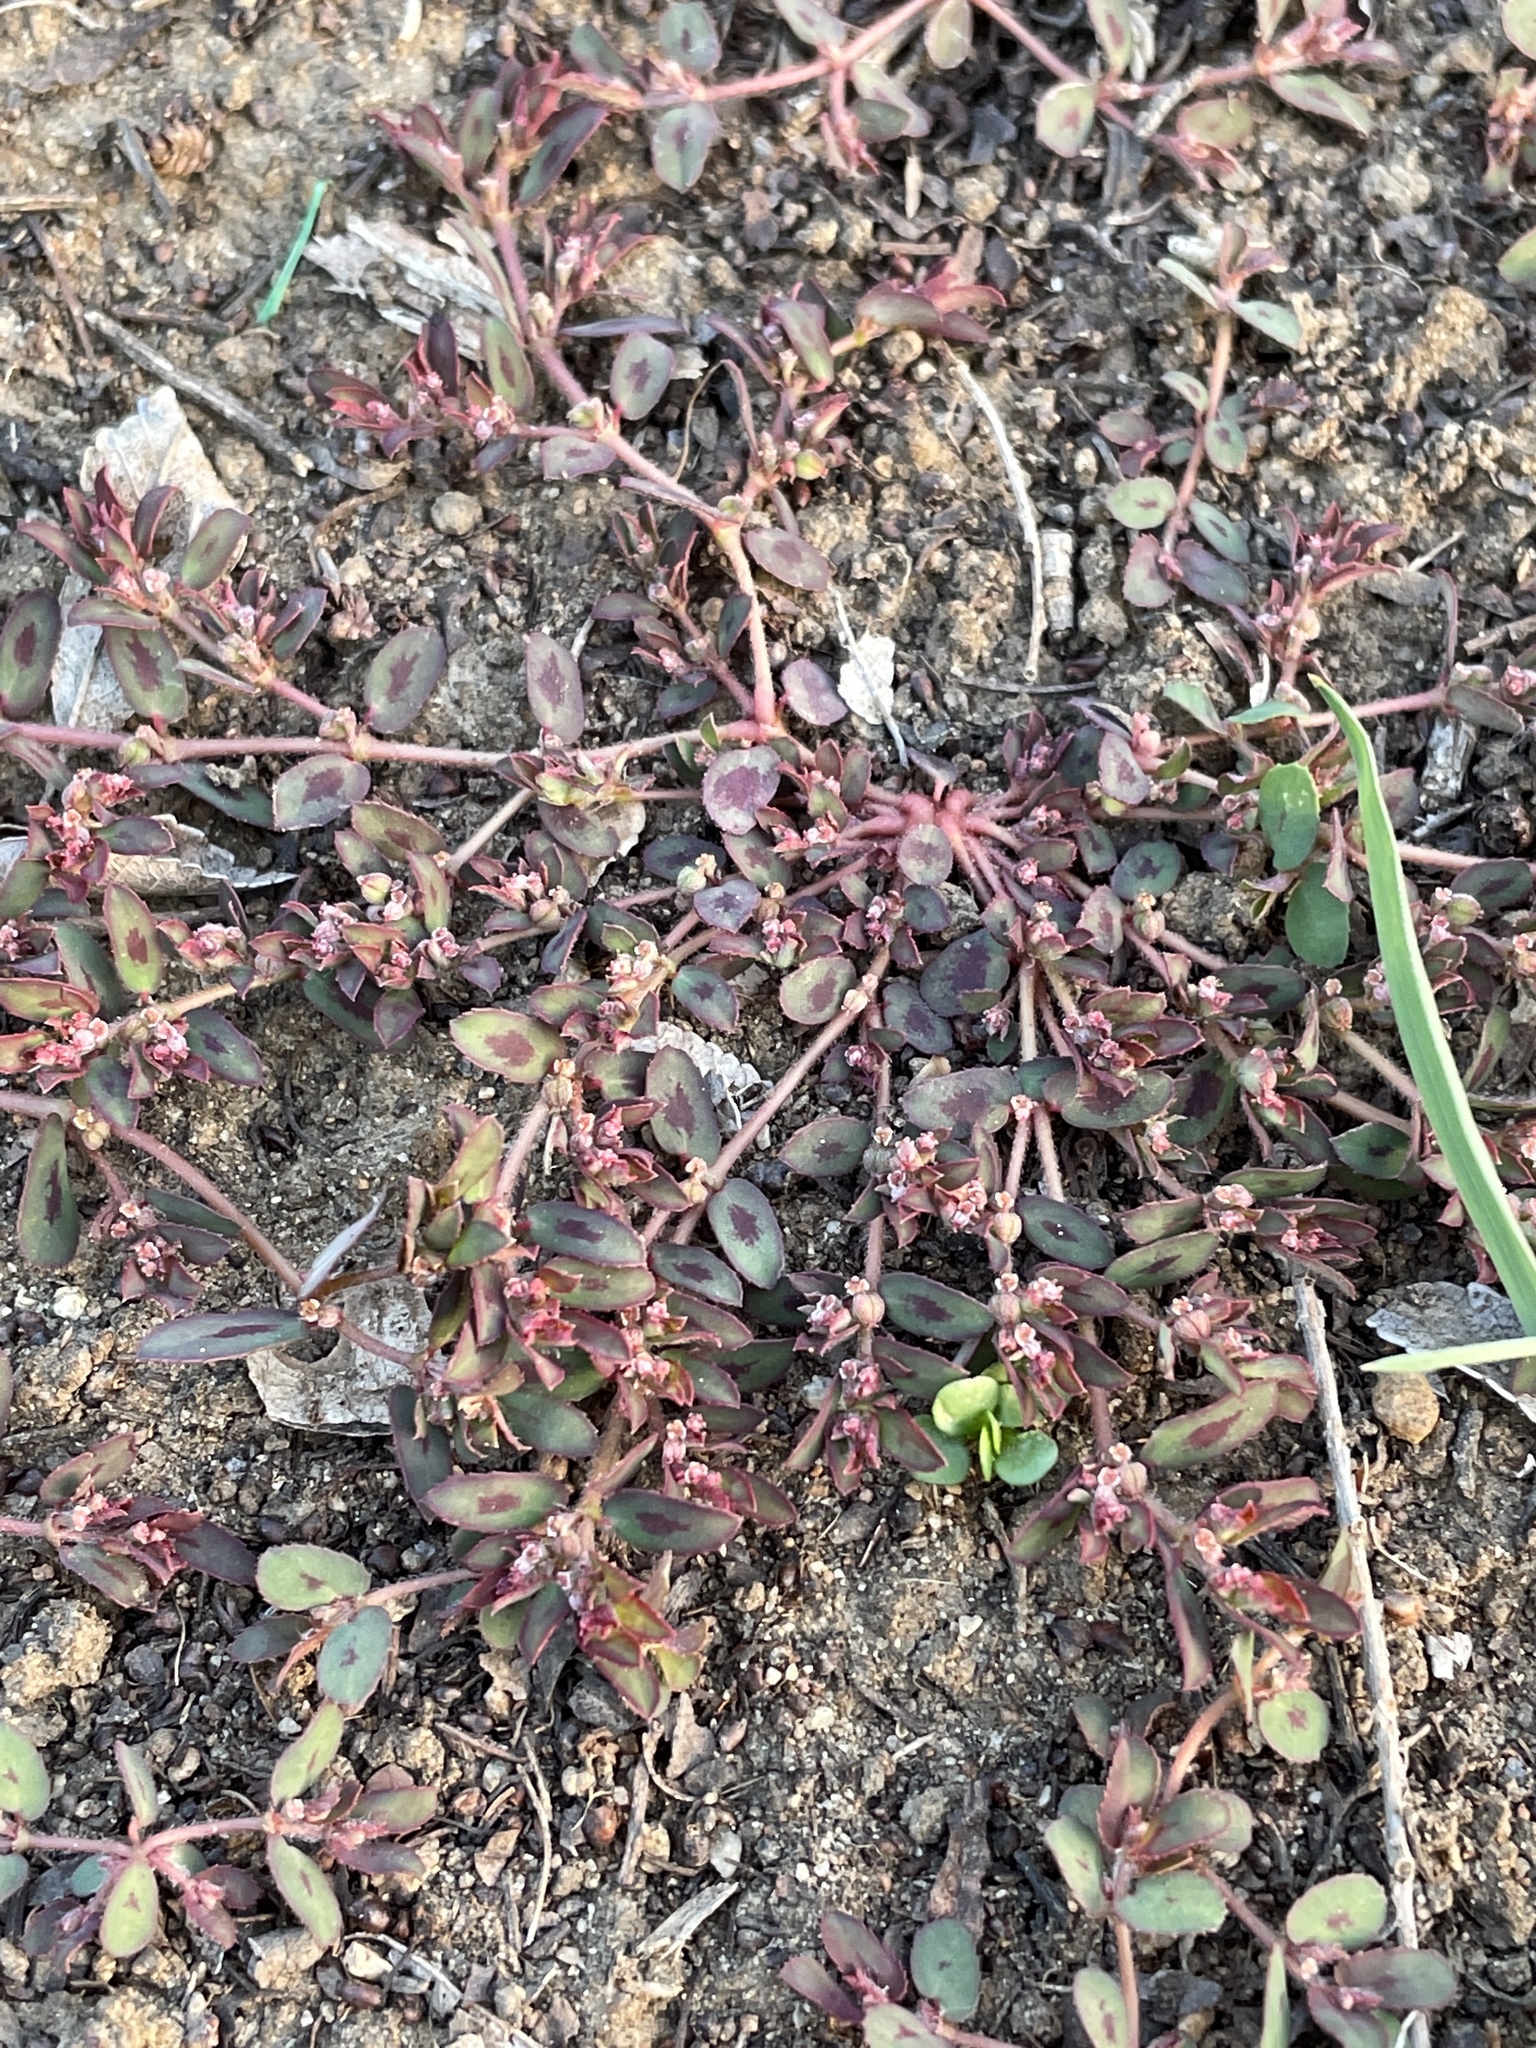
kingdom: Plantae
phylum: Tracheophyta
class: Magnoliopsida
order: Malpighiales
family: Euphorbiaceae
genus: Euphorbia
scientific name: Euphorbia maculata
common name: Spotted spurge
